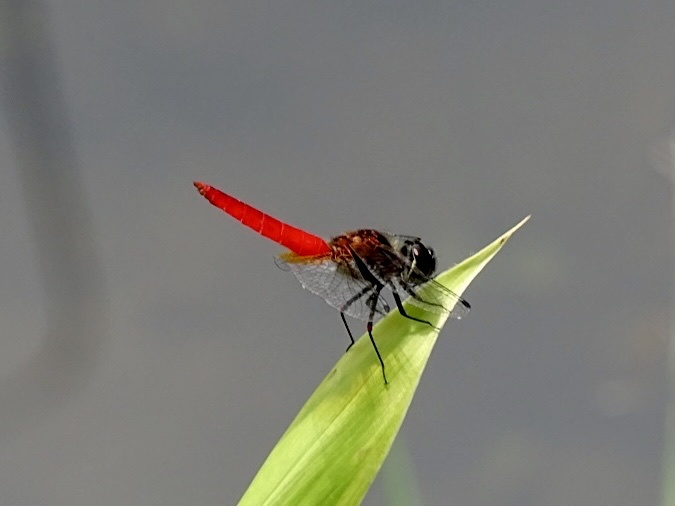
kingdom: Animalia
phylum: Arthropoda
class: Insecta
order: Odonata
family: Libellulidae
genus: Aethriamanta
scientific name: Aethriamanta brevipennis
